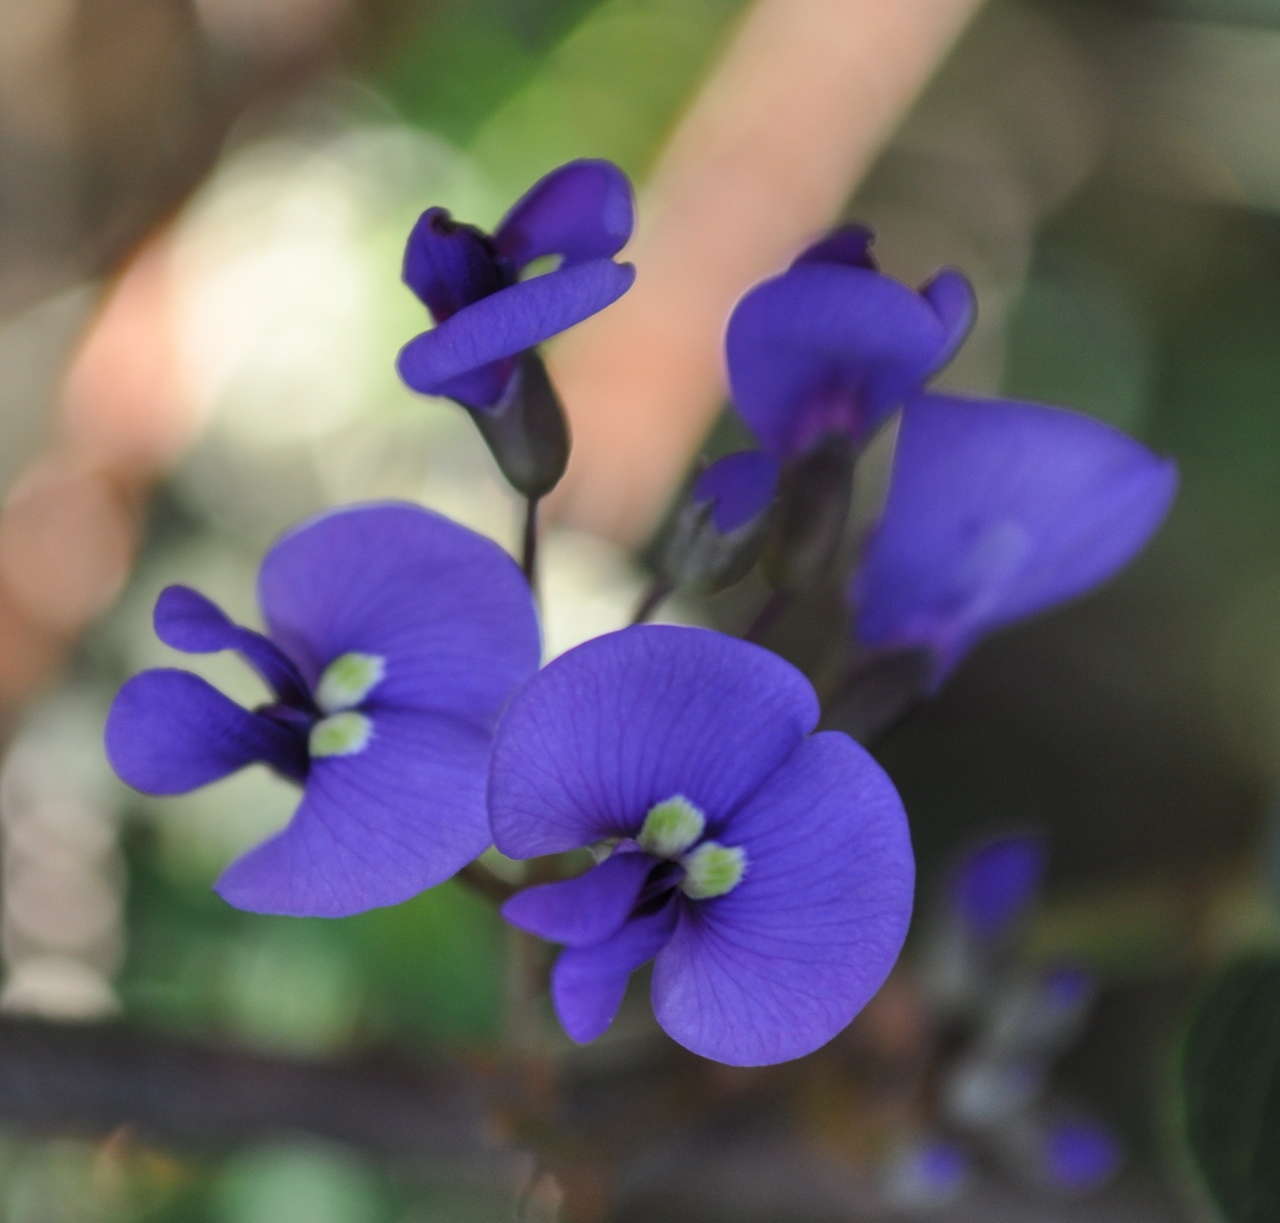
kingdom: Plantae
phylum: Tracheophyta
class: Magnoliopsida
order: Fabales
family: Fabaceae
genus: Hardenbergia
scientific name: Hardenbergia violacea
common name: Coral-pea
